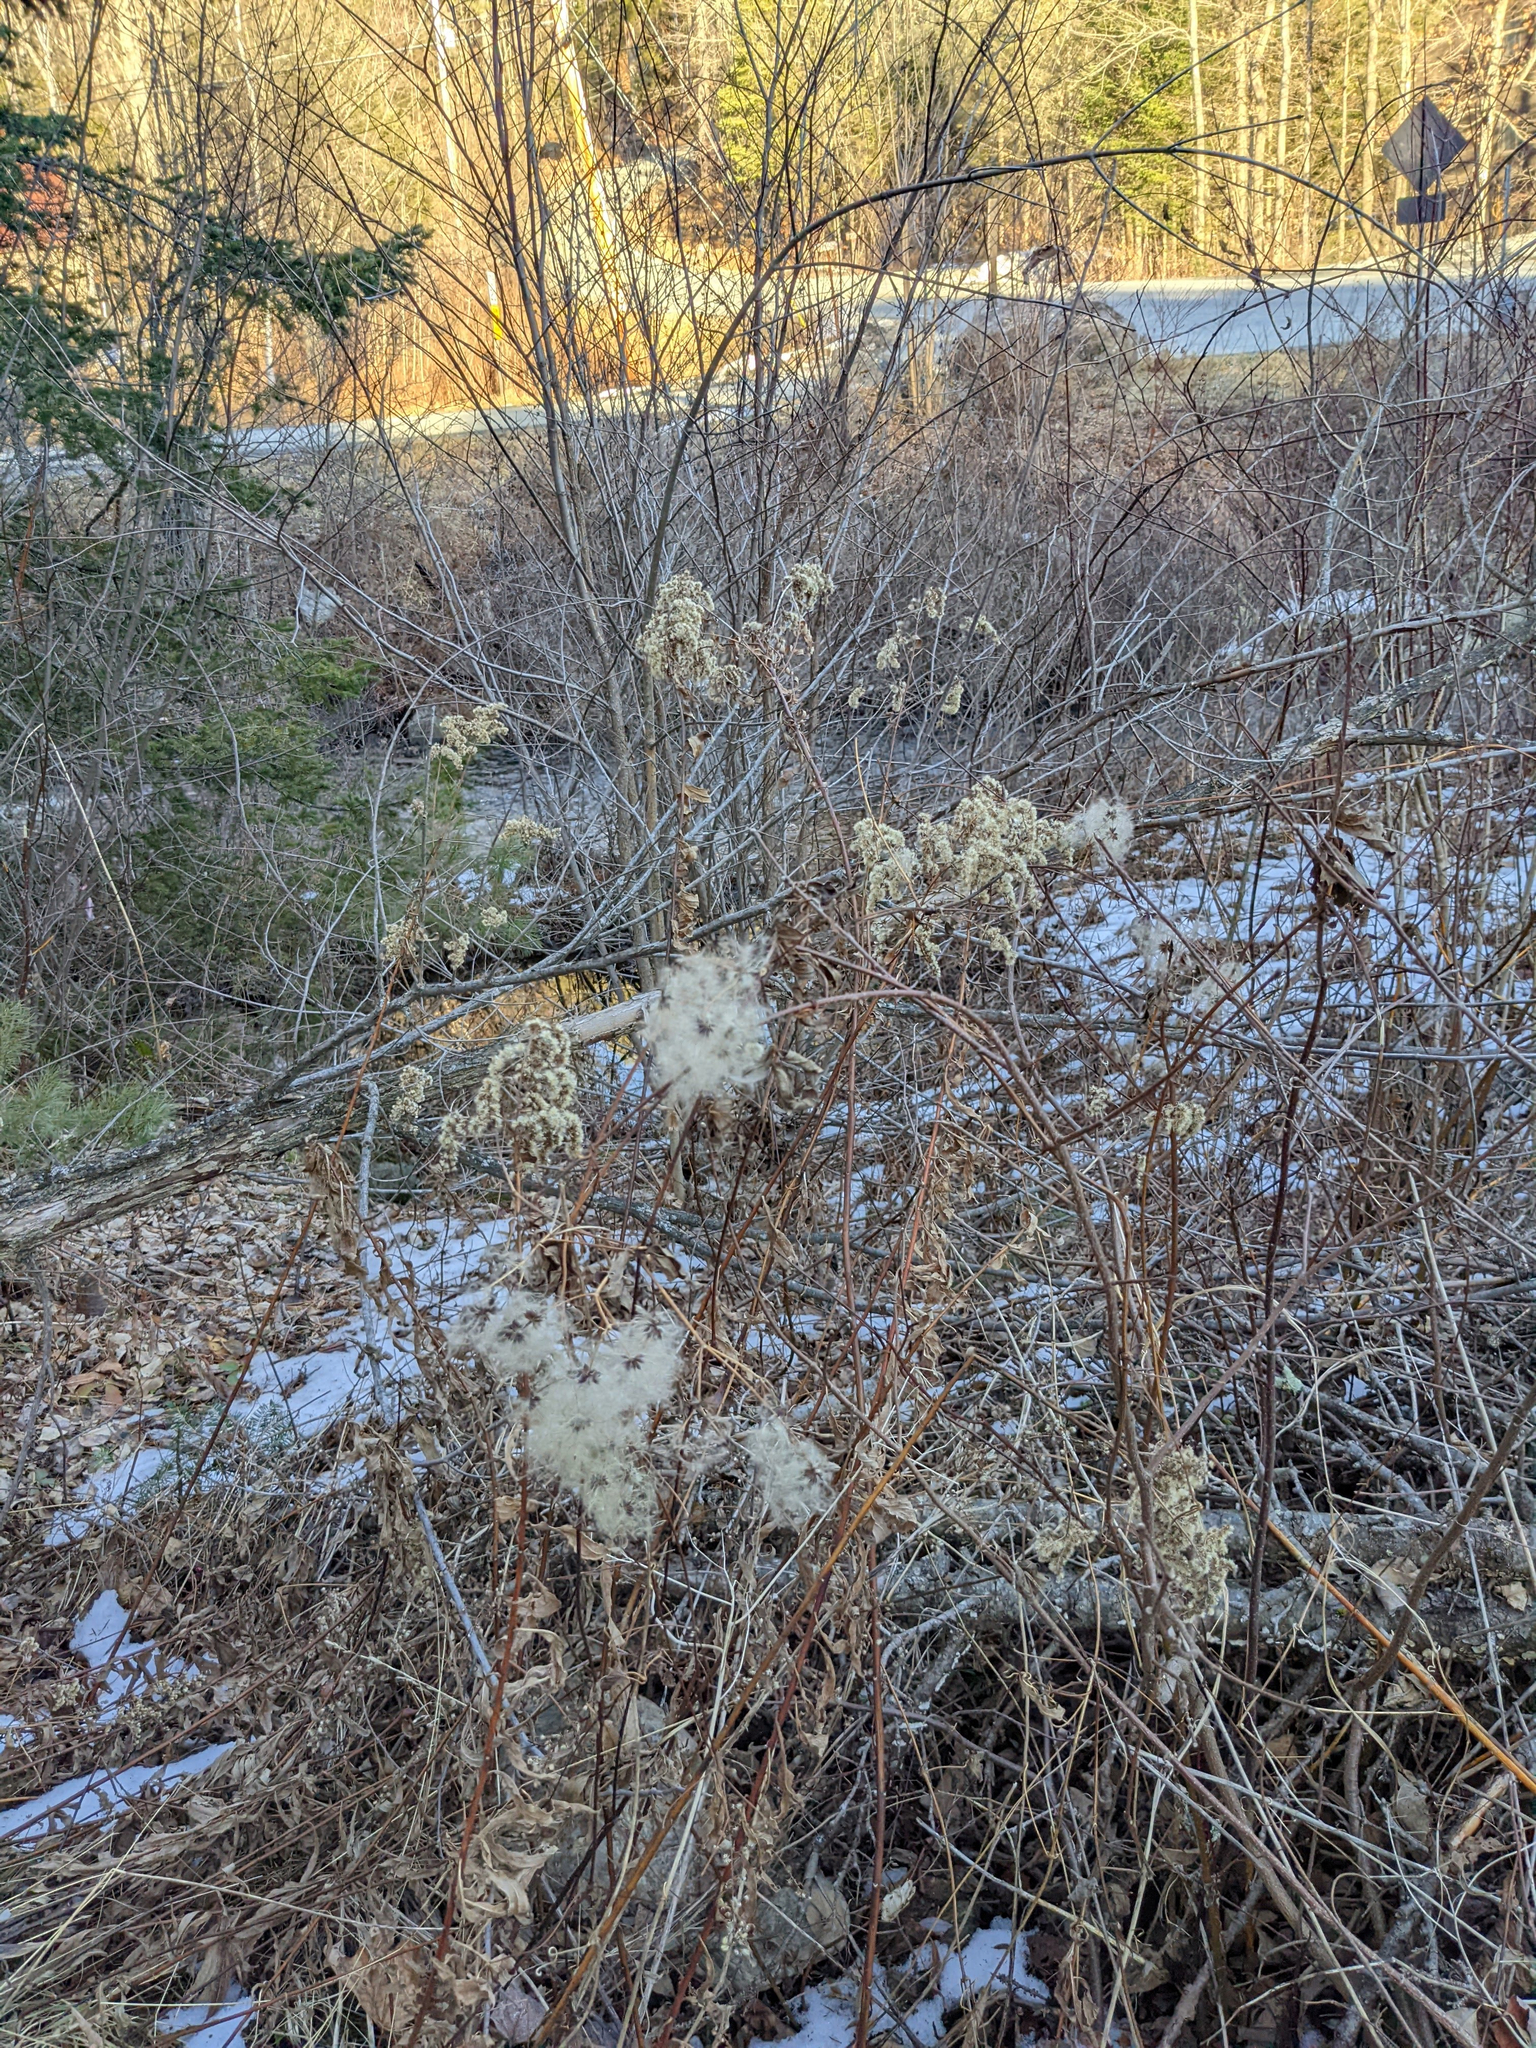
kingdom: Plantae
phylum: Tracheophyta
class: Magnoliopsida
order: Ranunculales
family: Ranunculaceae
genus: Clematis
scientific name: Clematis virginiana
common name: Virgin's-bower
